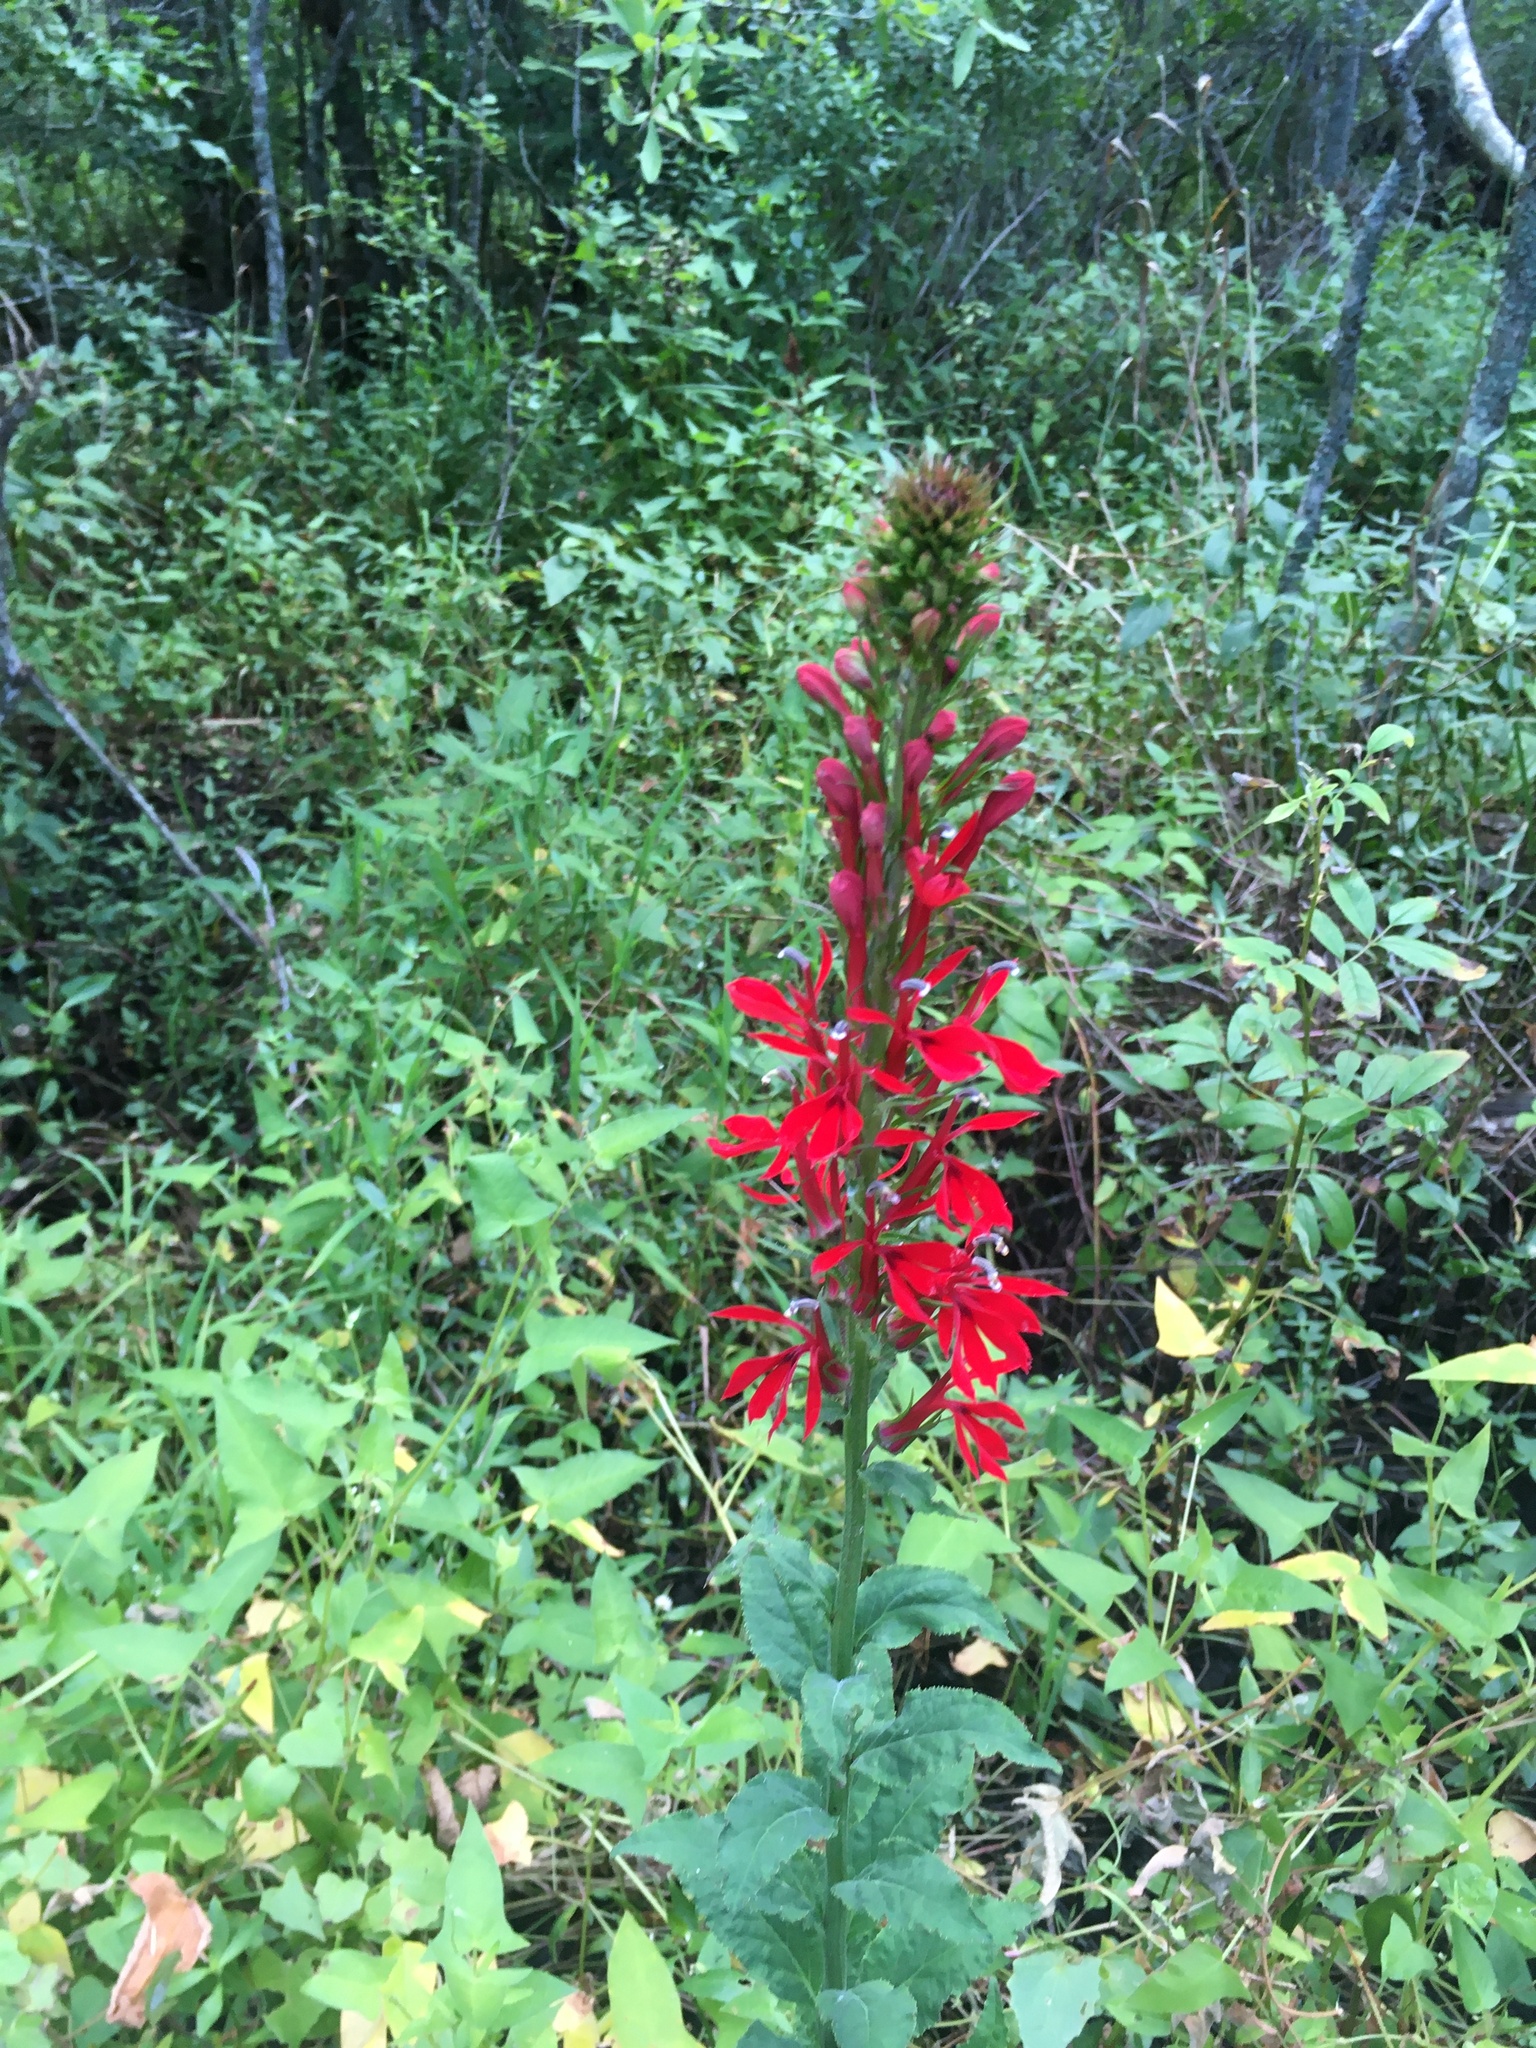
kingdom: Plantae
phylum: Tracheophyta
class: Magnoliopsida
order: Asterales
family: Campanulaceae
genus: Lobelia
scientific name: Lobelia cardinalis
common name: Cardinal flower
